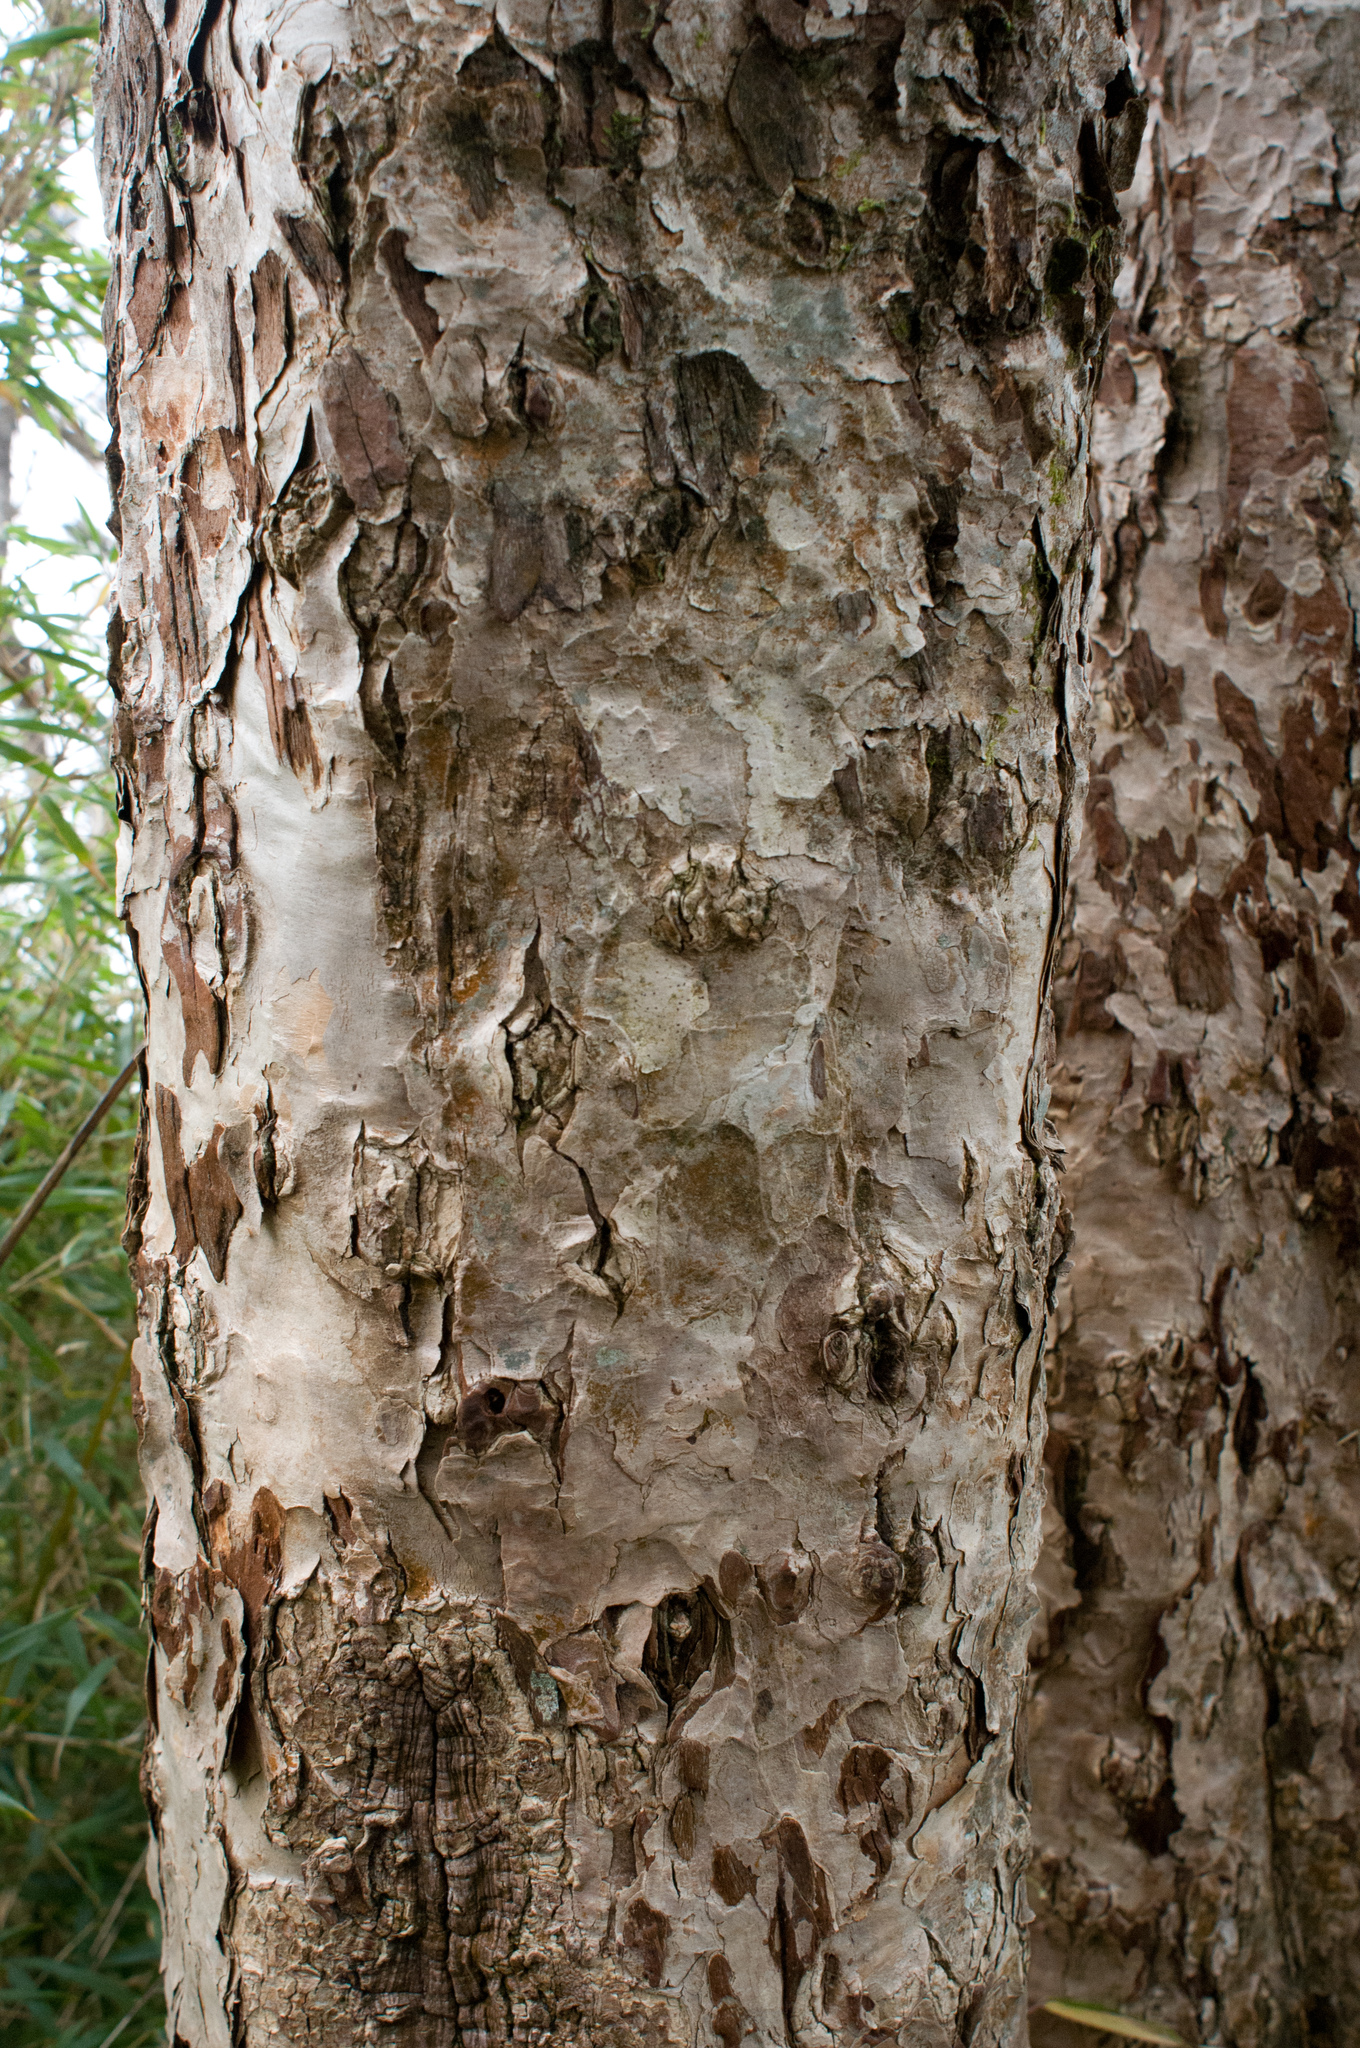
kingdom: Plantae
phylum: Tracheophyta
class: Pinopsida
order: Pinales
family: Pinaceae
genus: Tsuga
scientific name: Tsuga chinensis
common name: Chinese hemlock
